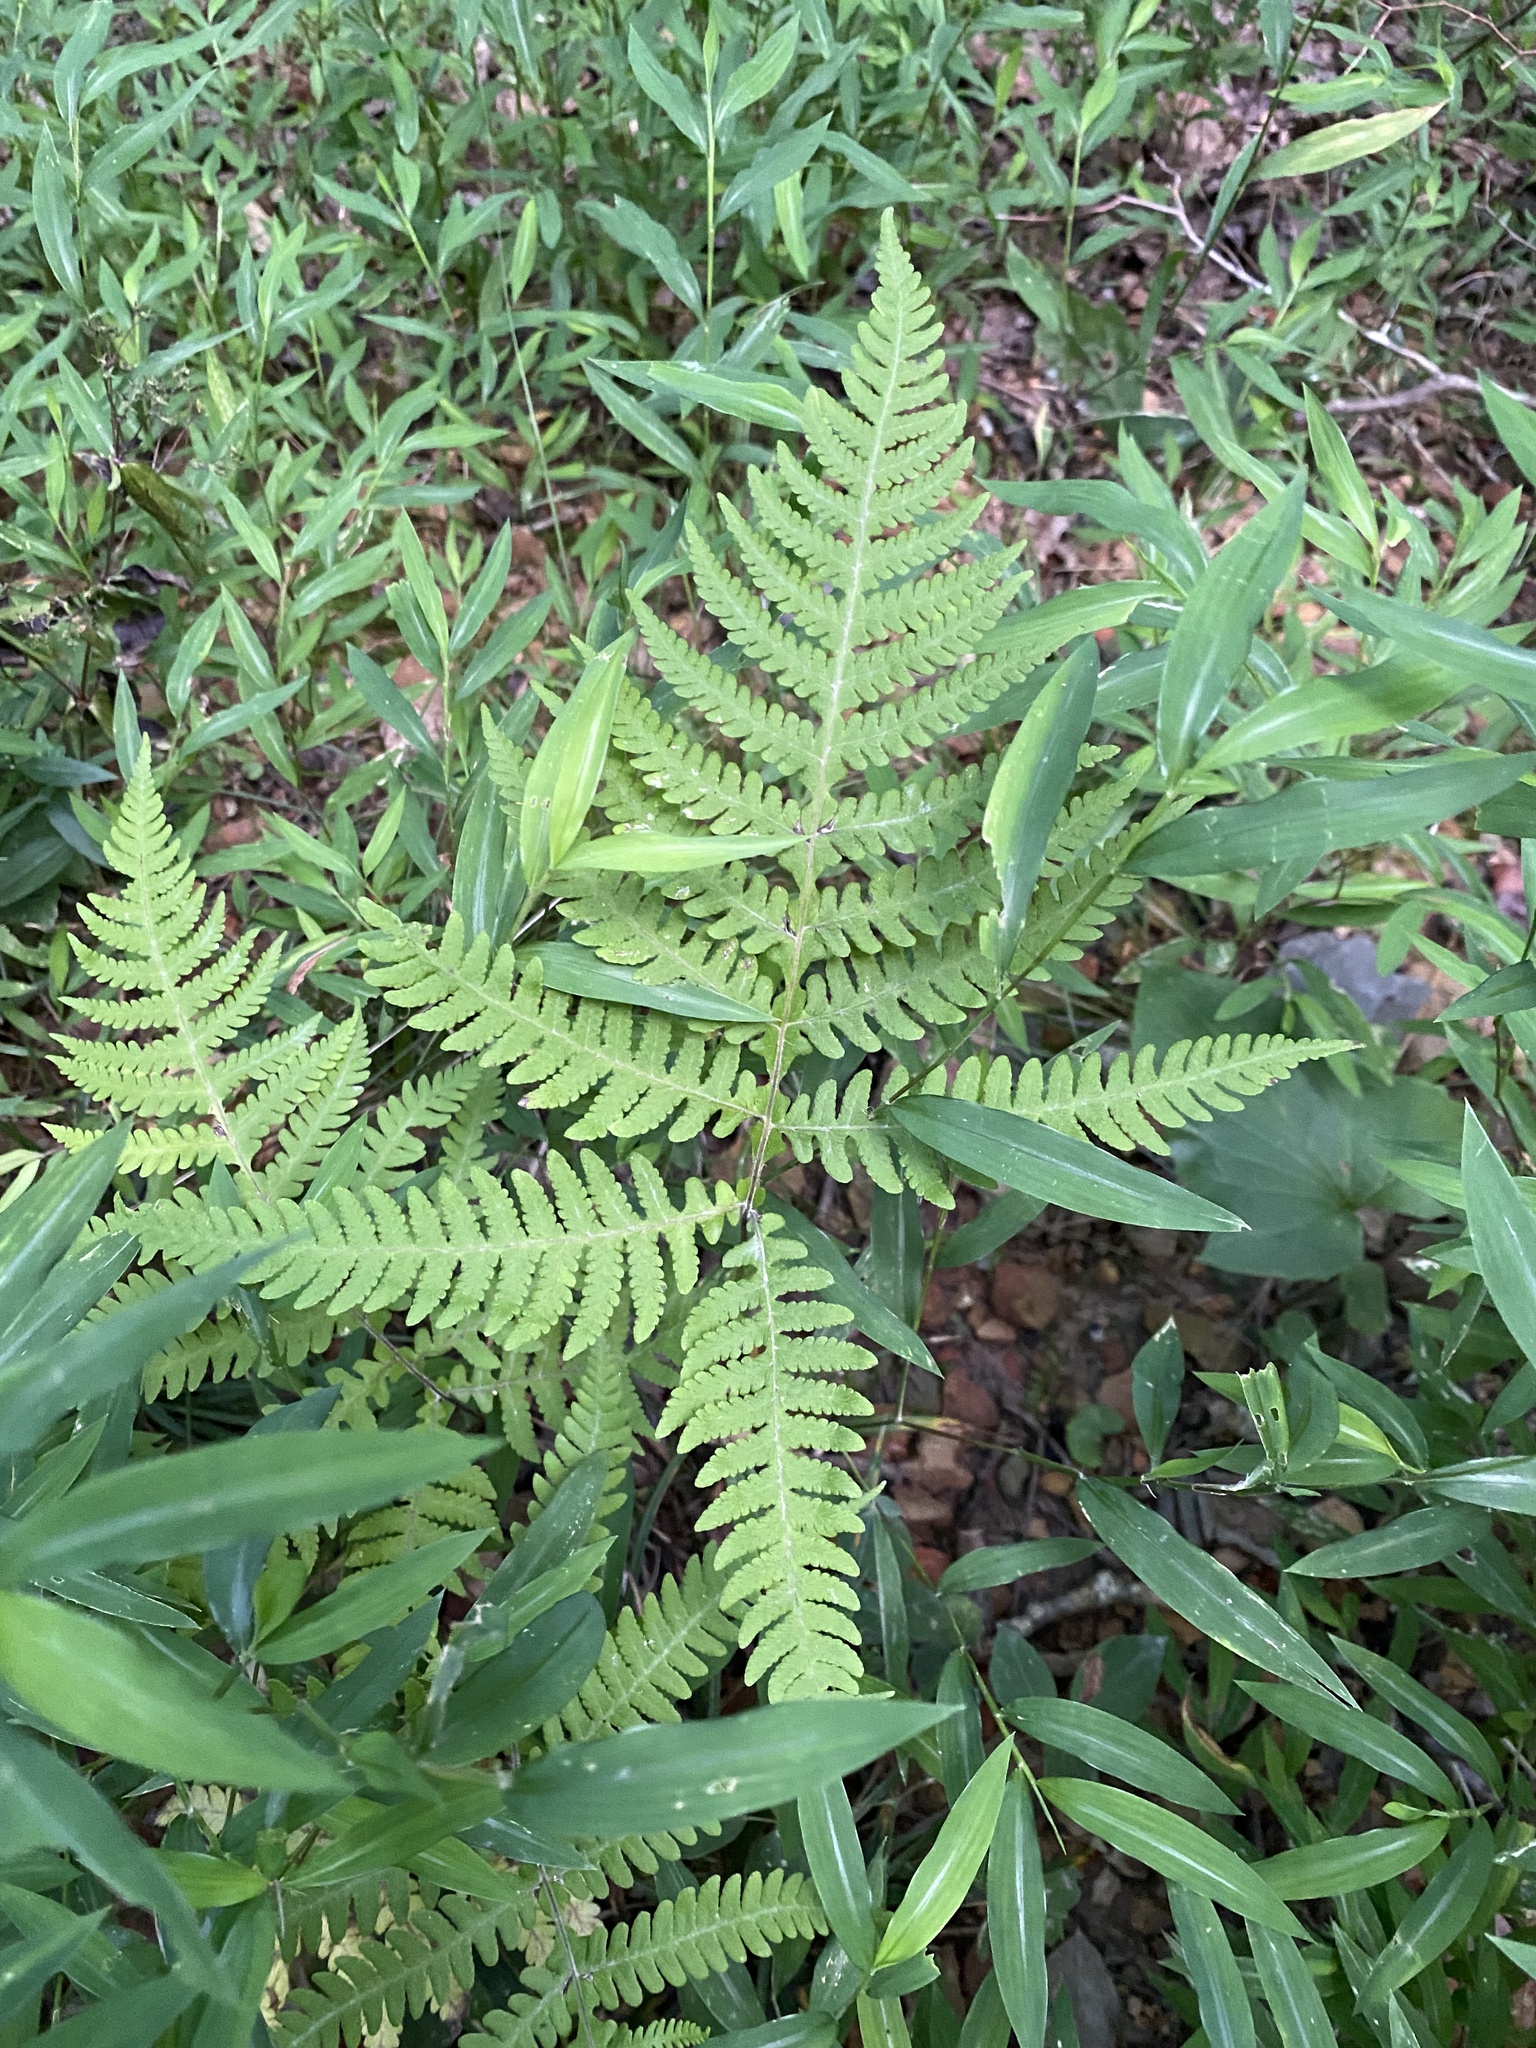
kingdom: Plantae
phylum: Tracheophyta
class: Polypodiopsida
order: Polypodiales
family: Thelypteridaceae
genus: Phegopteris
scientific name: Phegopteris hexagonoptera
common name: Broad beech fern
